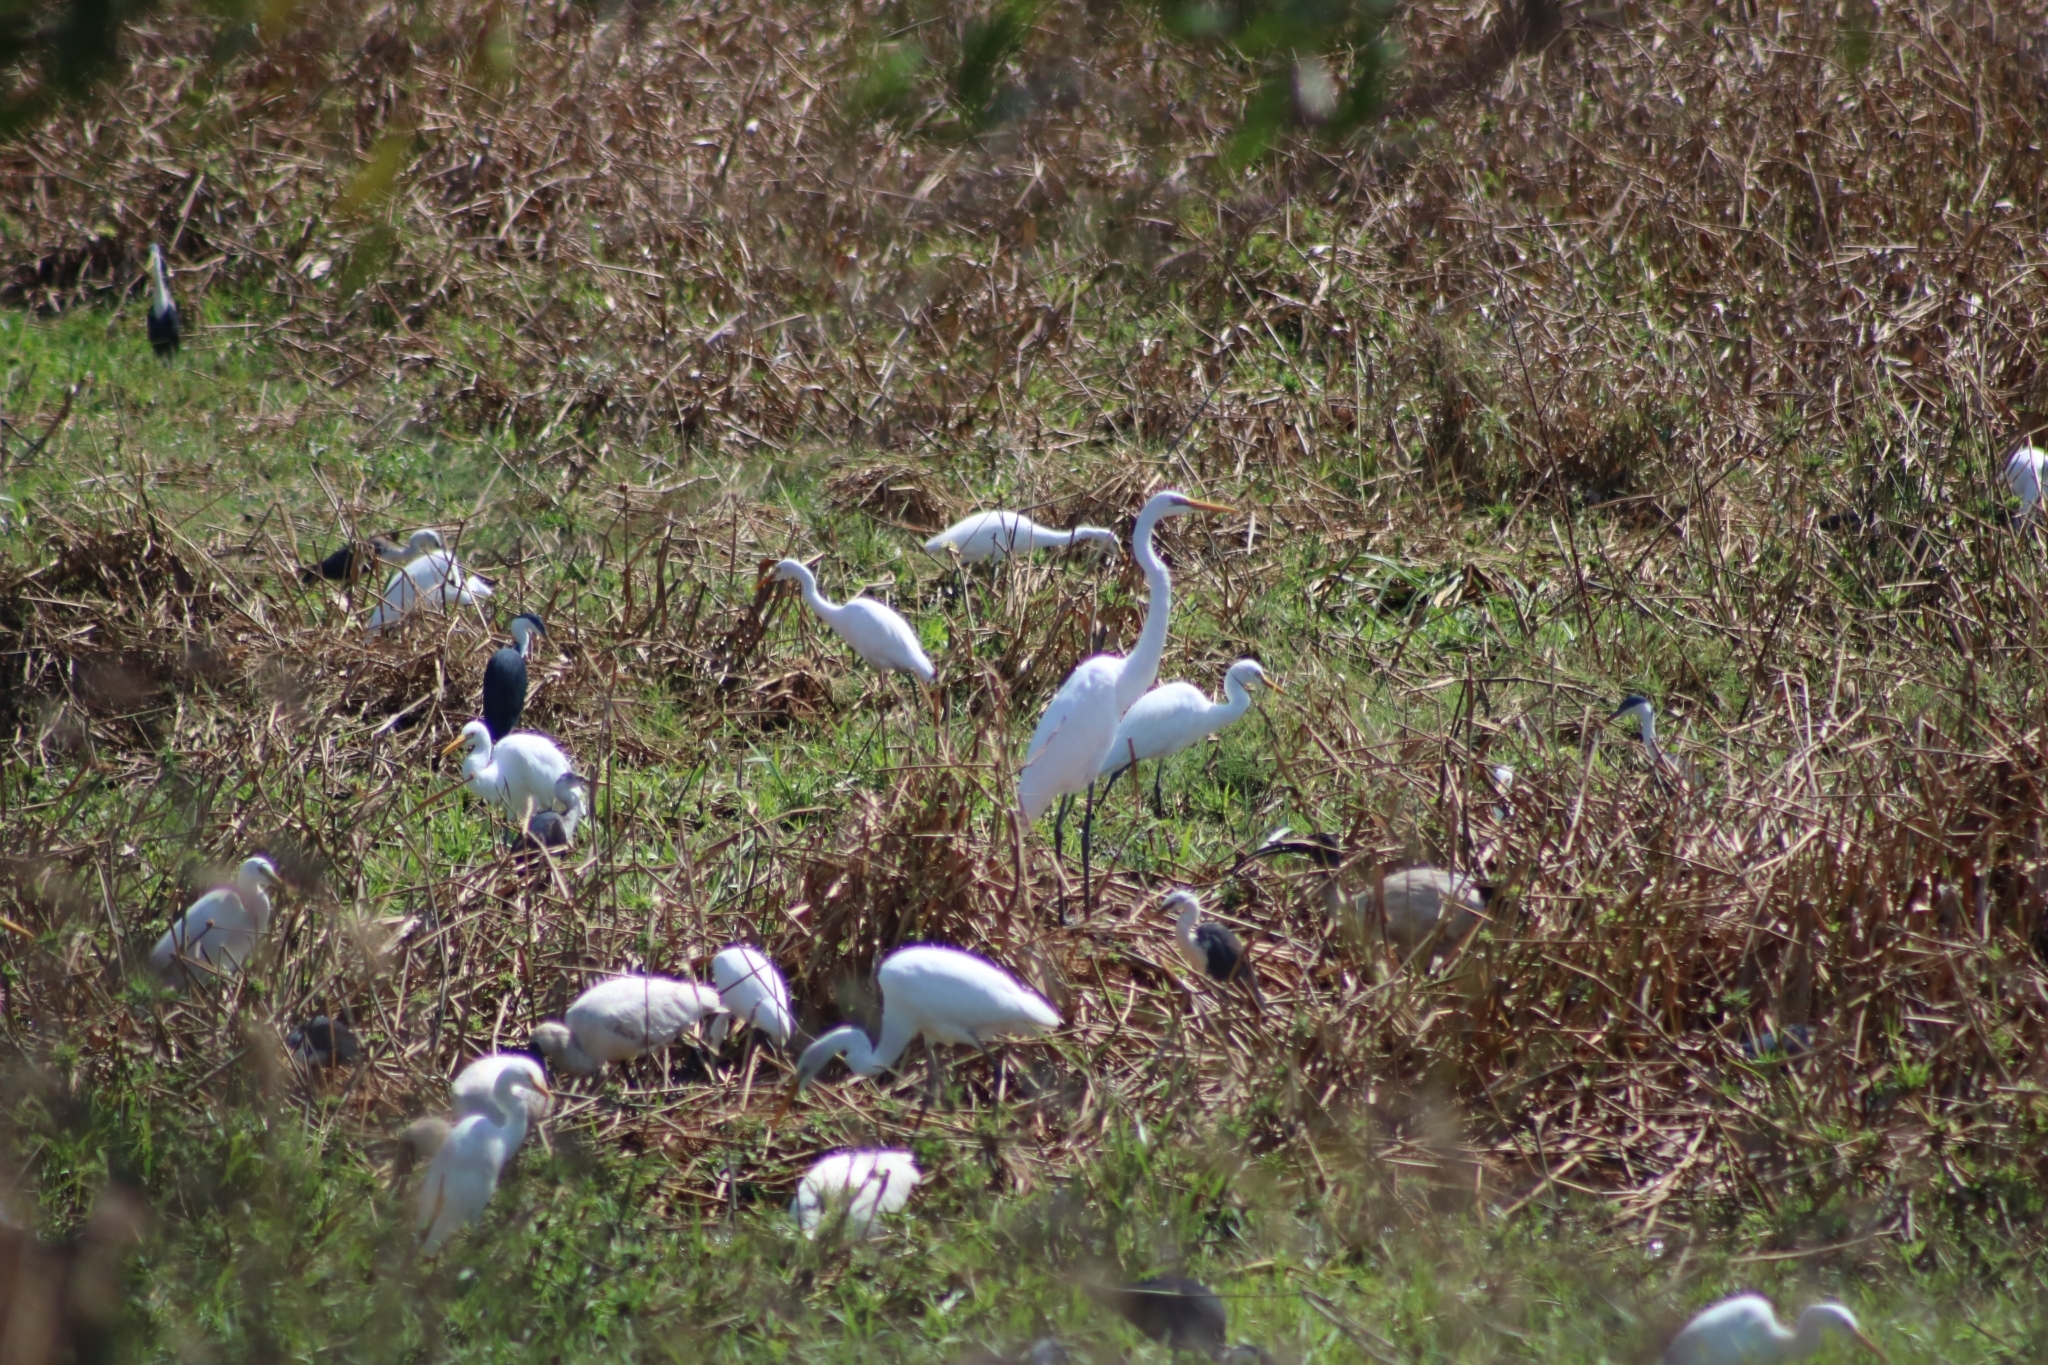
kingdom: Animalia
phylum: Chordata
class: Aves
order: Pelecaniformes
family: Ardeidae
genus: Ardea
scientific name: Ardea alba
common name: Great egret
